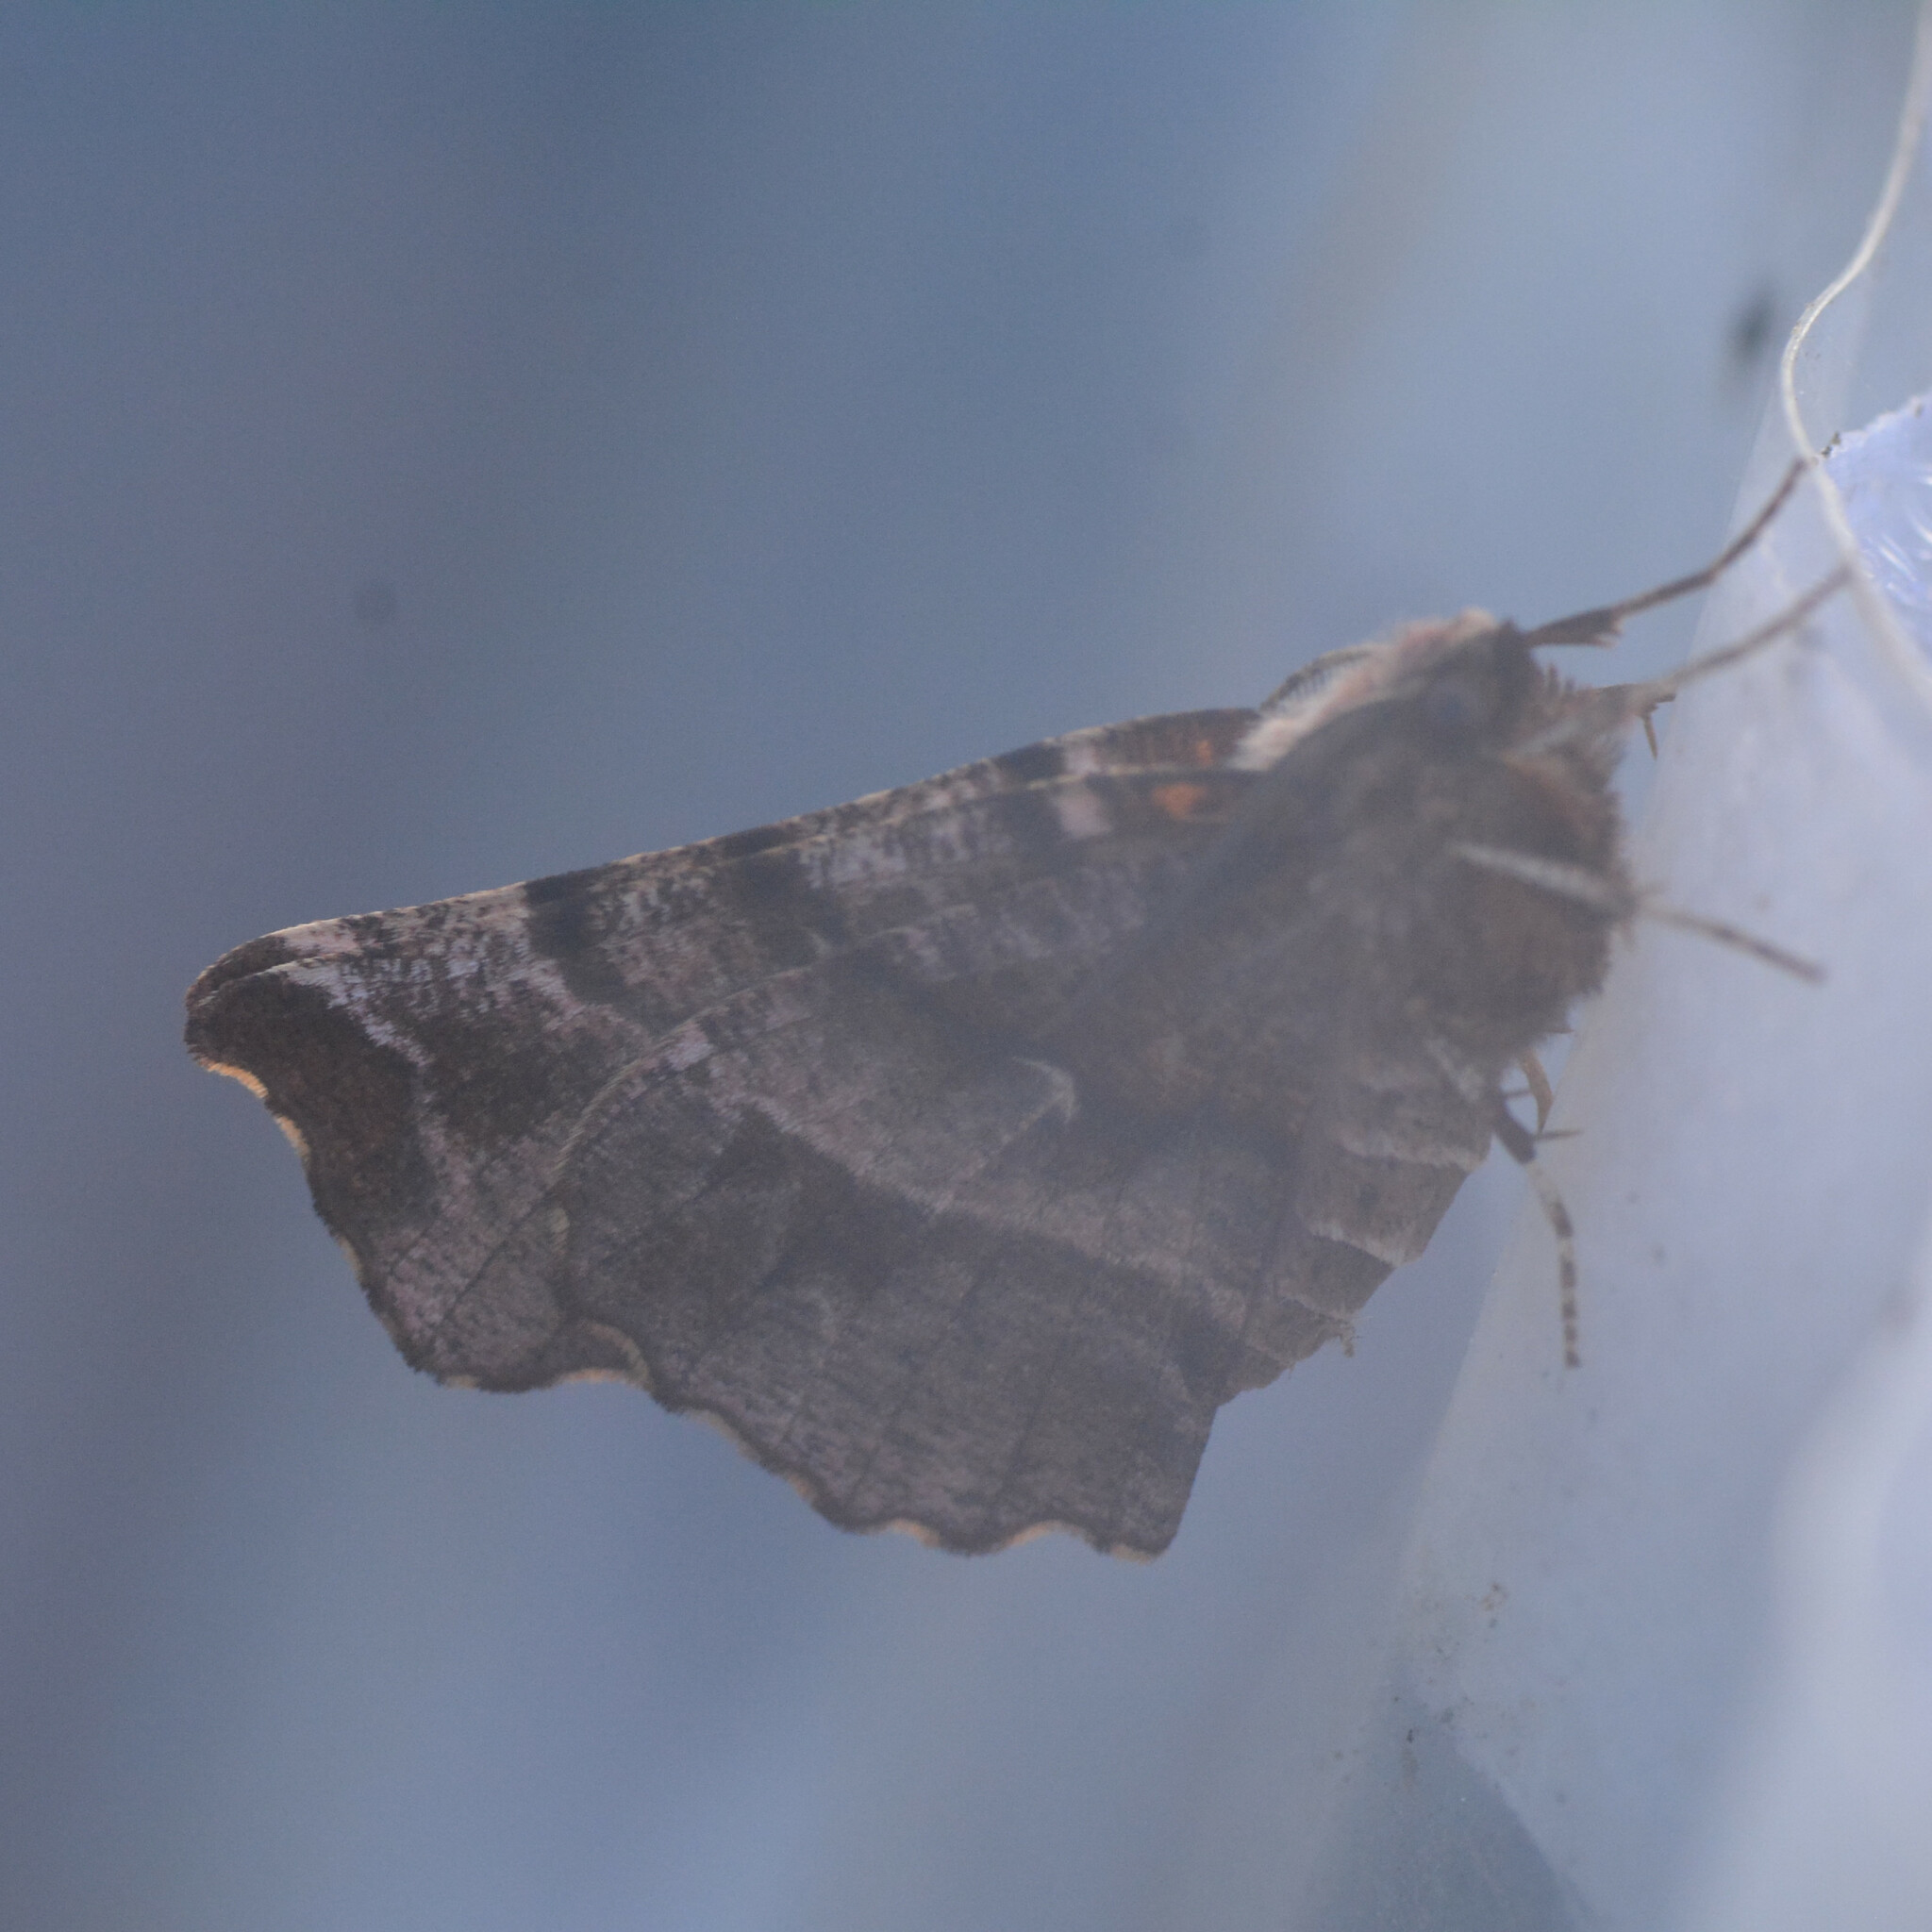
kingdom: Animalia
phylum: Arthropoda
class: Insecta
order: Lepidoptera
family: Geometridae
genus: Selenia
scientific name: Selenia dentaria
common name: Early thorn
